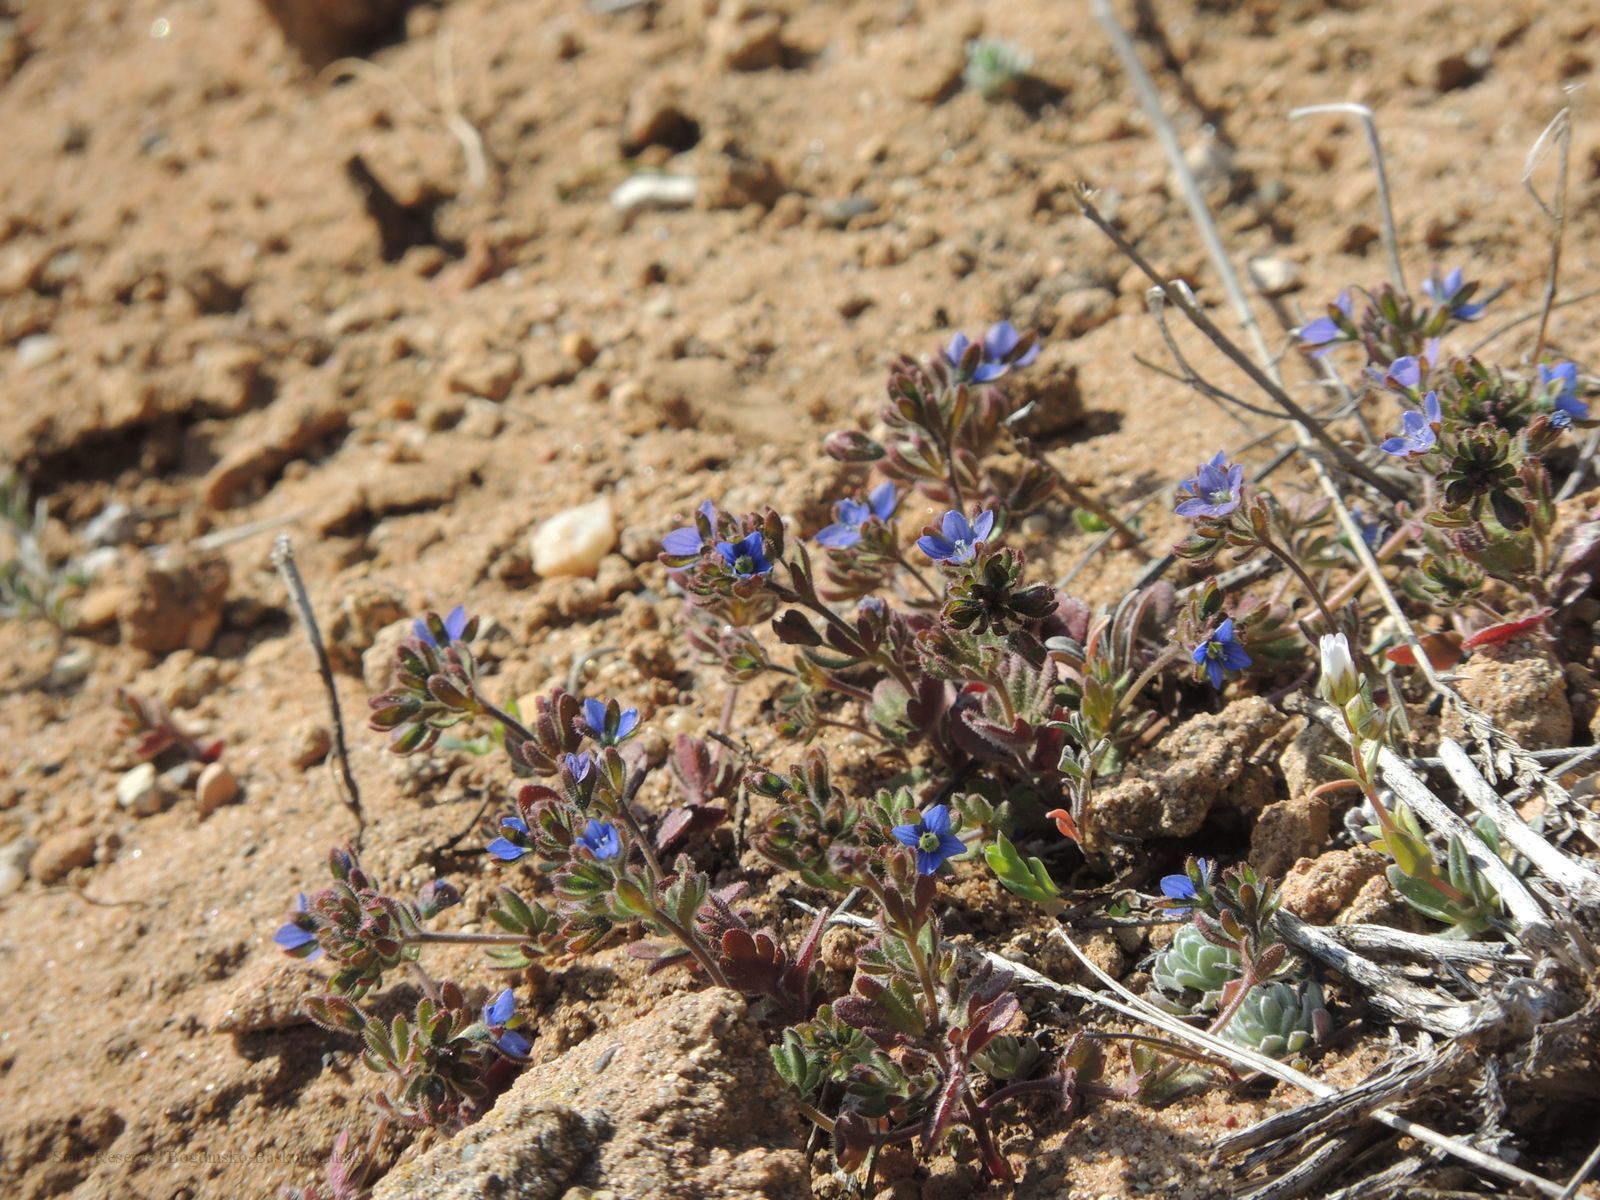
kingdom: Plantae
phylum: Tracheophyta
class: Magnoliopsida
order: Lamiales
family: Plantaginaceae
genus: Veronica
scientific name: Veronica triphyllos
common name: Fingered speedwell
